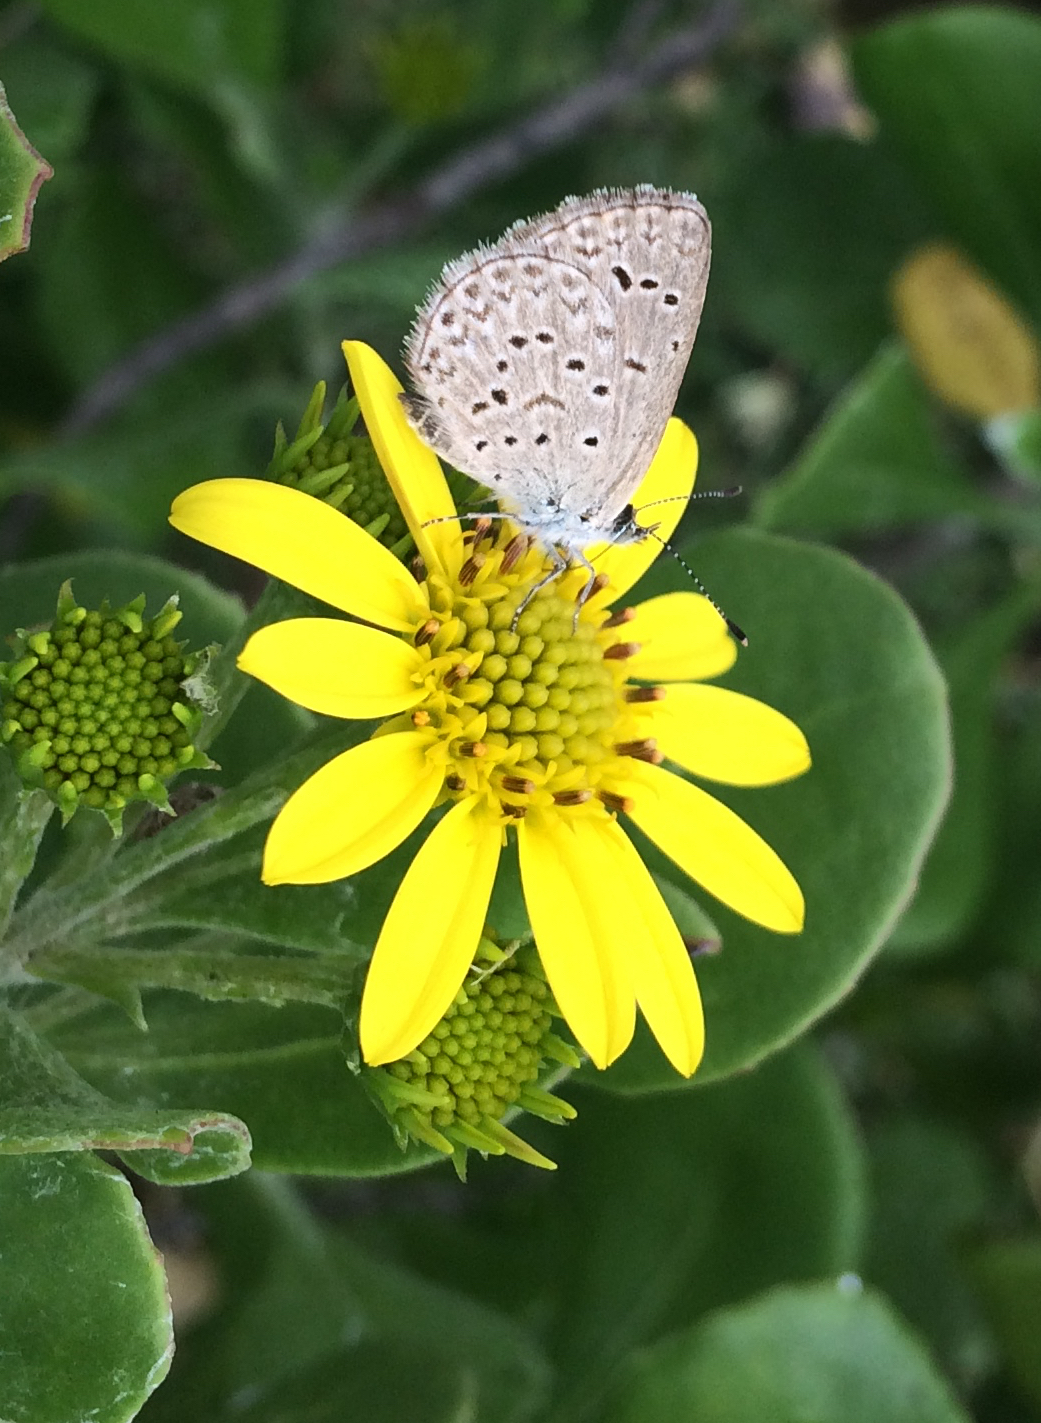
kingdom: Animalia
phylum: Arthropoda
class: Insecta
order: Lepidoptera
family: Lycaenidae
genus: Zizeeria
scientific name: Zizeeria knysna
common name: African grass blue
